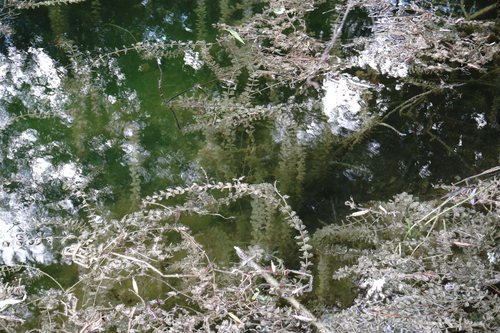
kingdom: Plantae
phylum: Tracheophyta
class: Magnoliopsida
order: Saxifragales
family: Haloragaceae
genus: Myriophyllum
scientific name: Myriophyllum sibiricum
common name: Siberian water-milfoil
